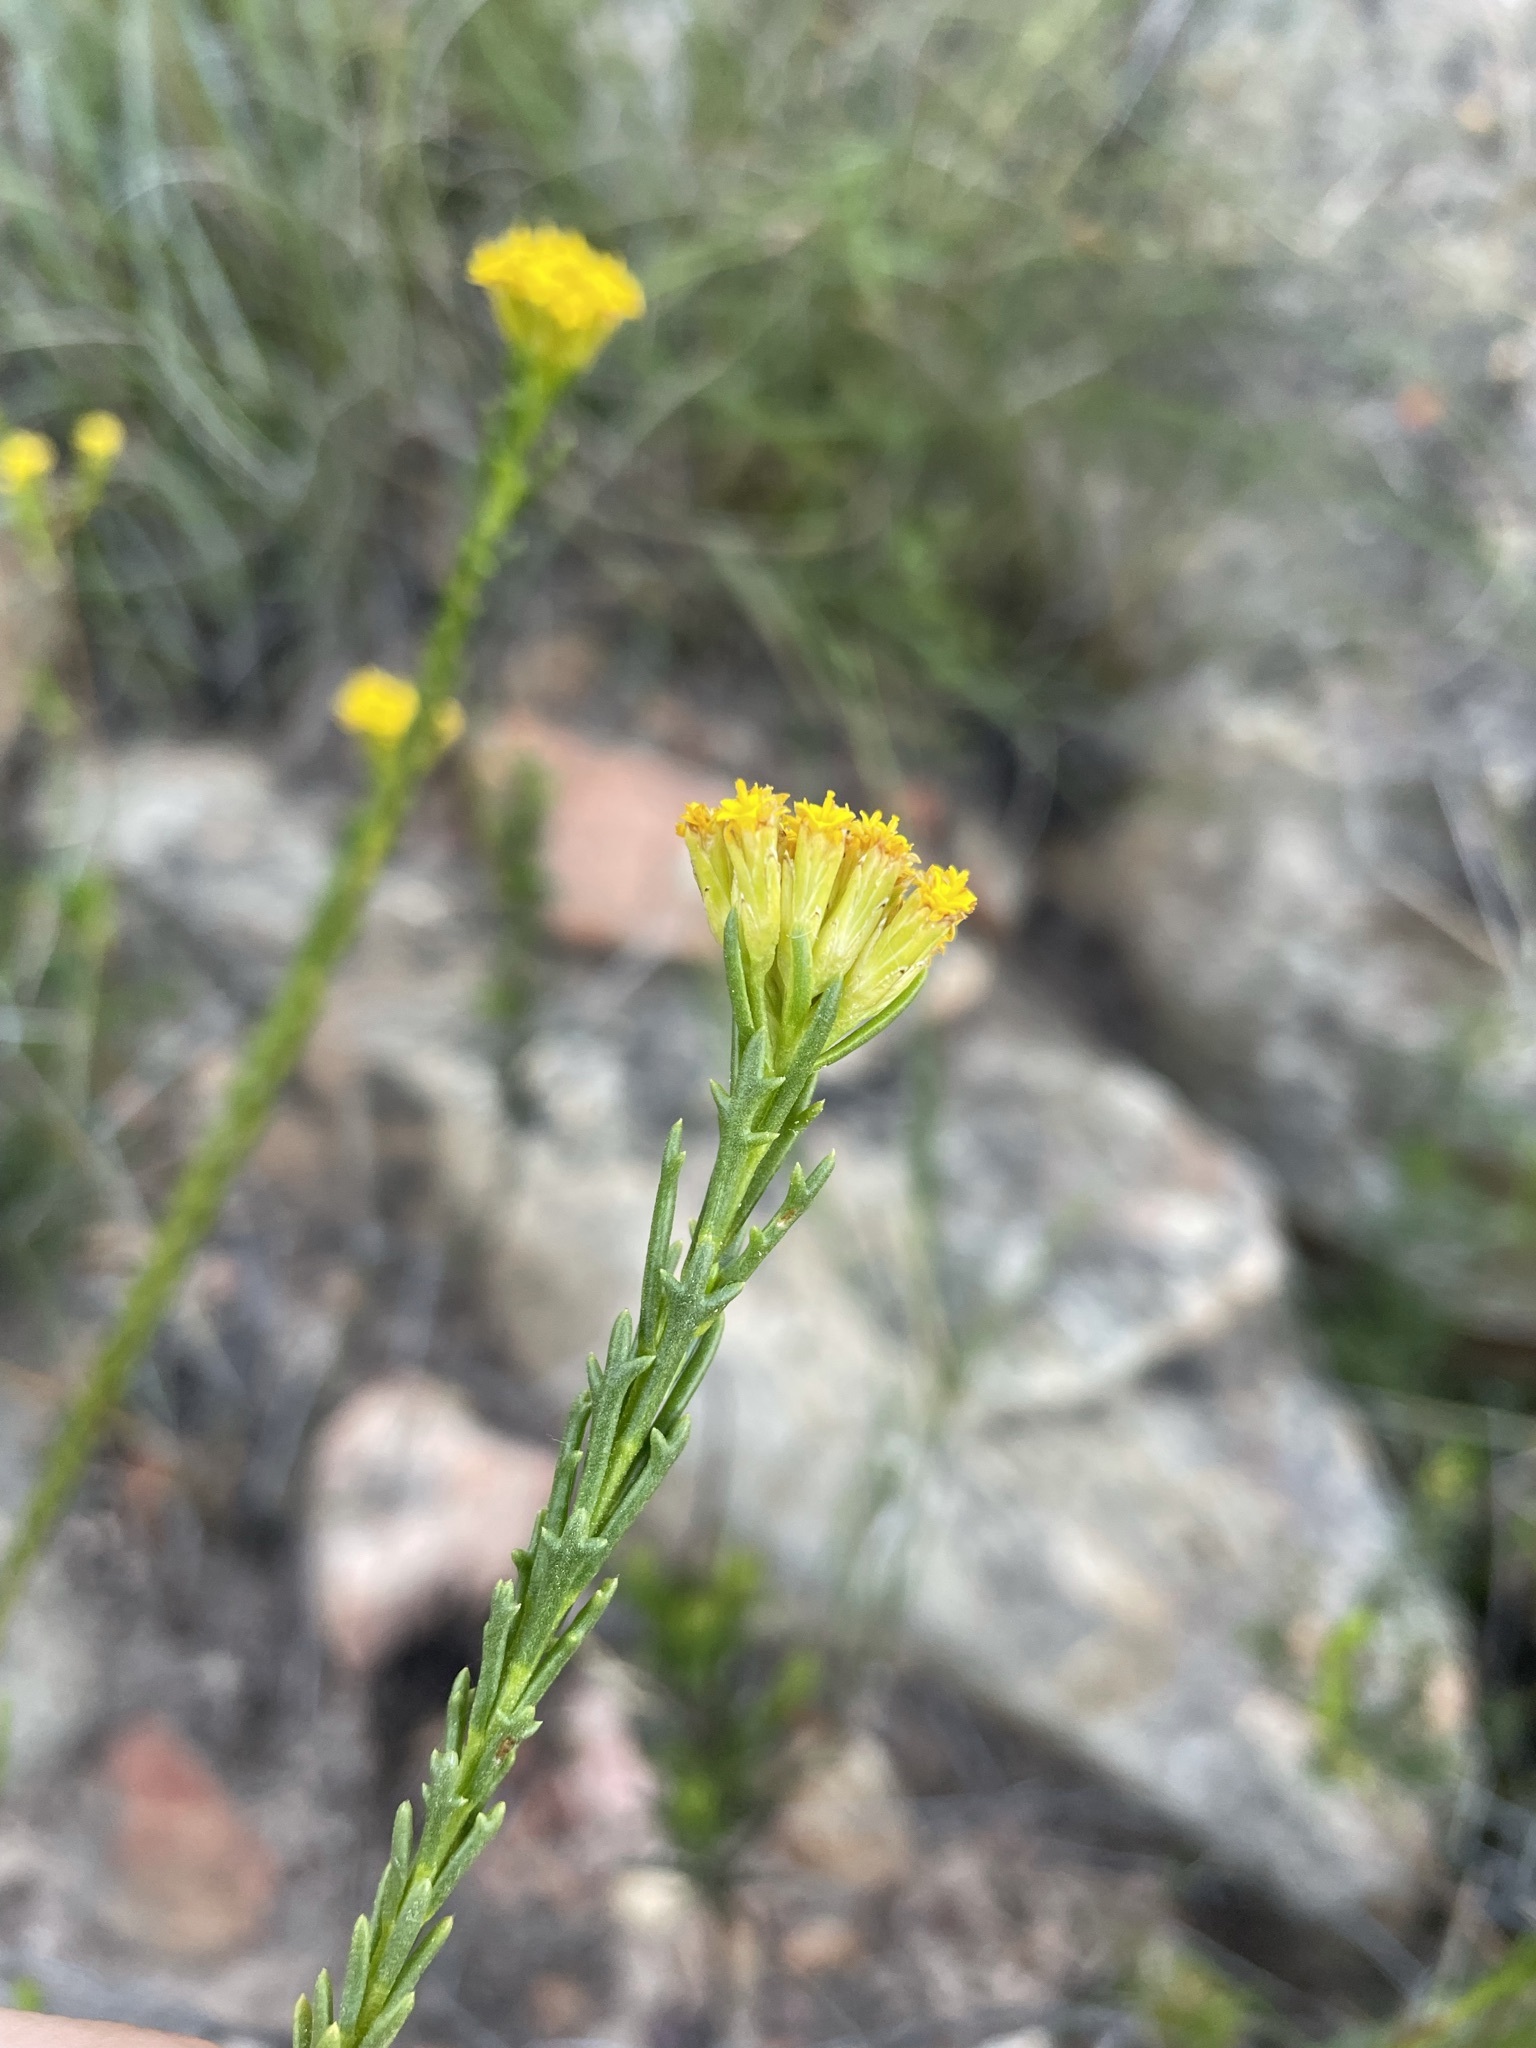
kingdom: Plantae
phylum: Tracheophyta
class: Magnoliopsida
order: Asterales
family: Asteraceae
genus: Hymenolepis
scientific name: Hymenolepis dentata
